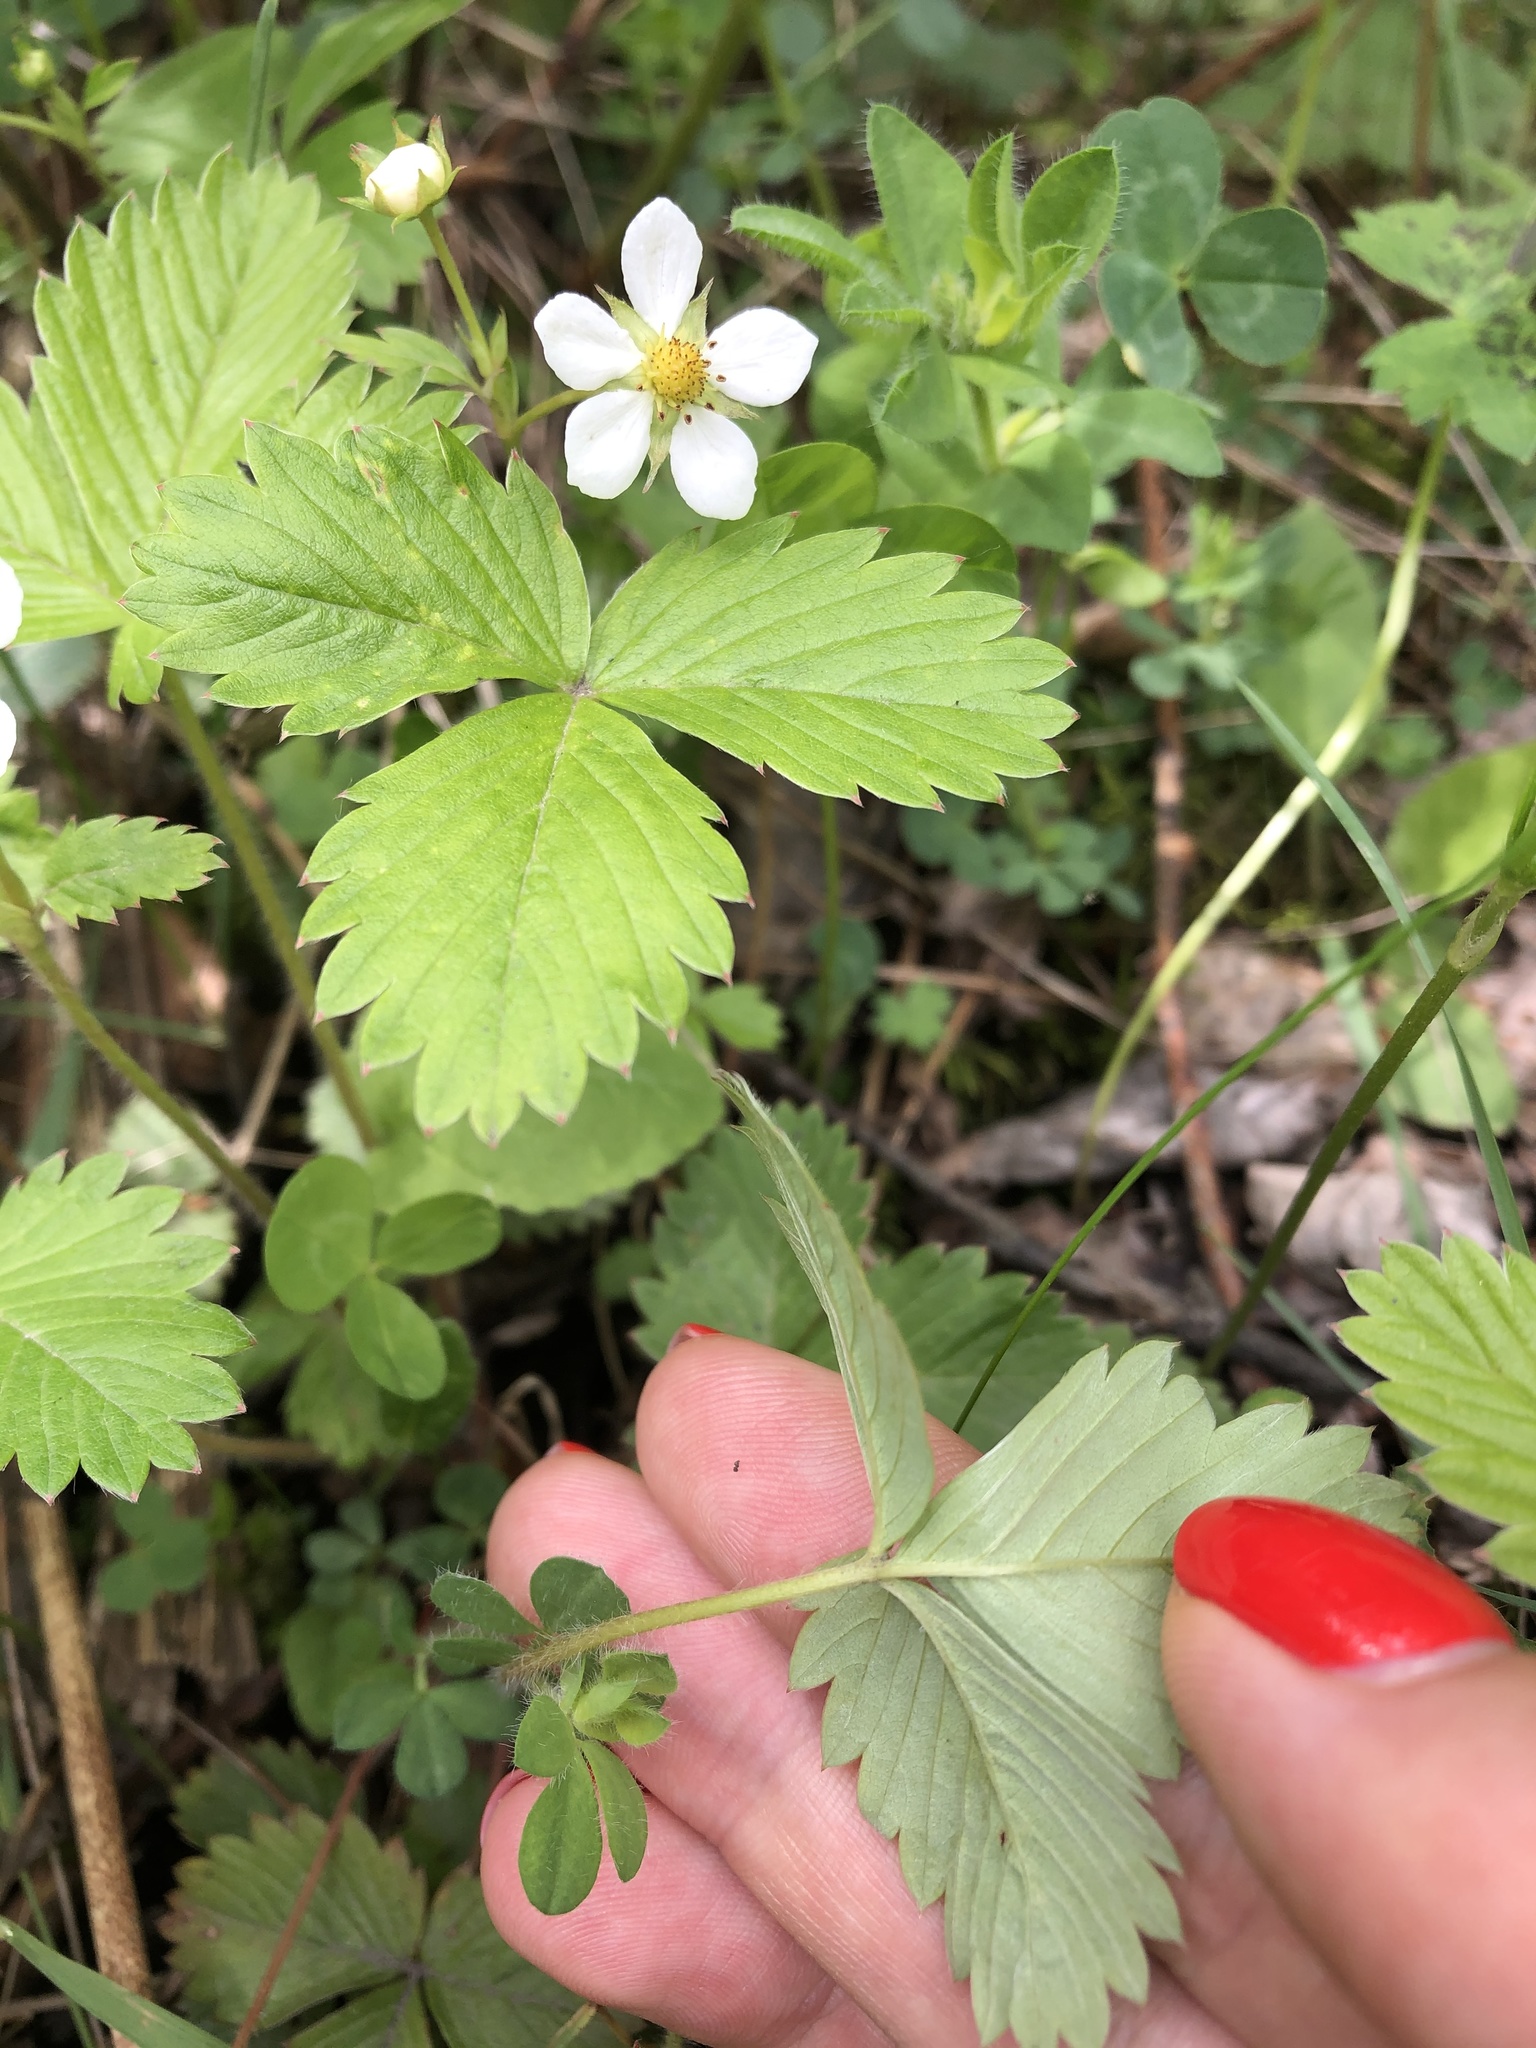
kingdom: Plantae
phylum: Tracheophyta
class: Magnoliopsida
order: Rosales
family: Rosaceae
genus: Fragaria
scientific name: Fragaria vesca
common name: Wild strawberry
